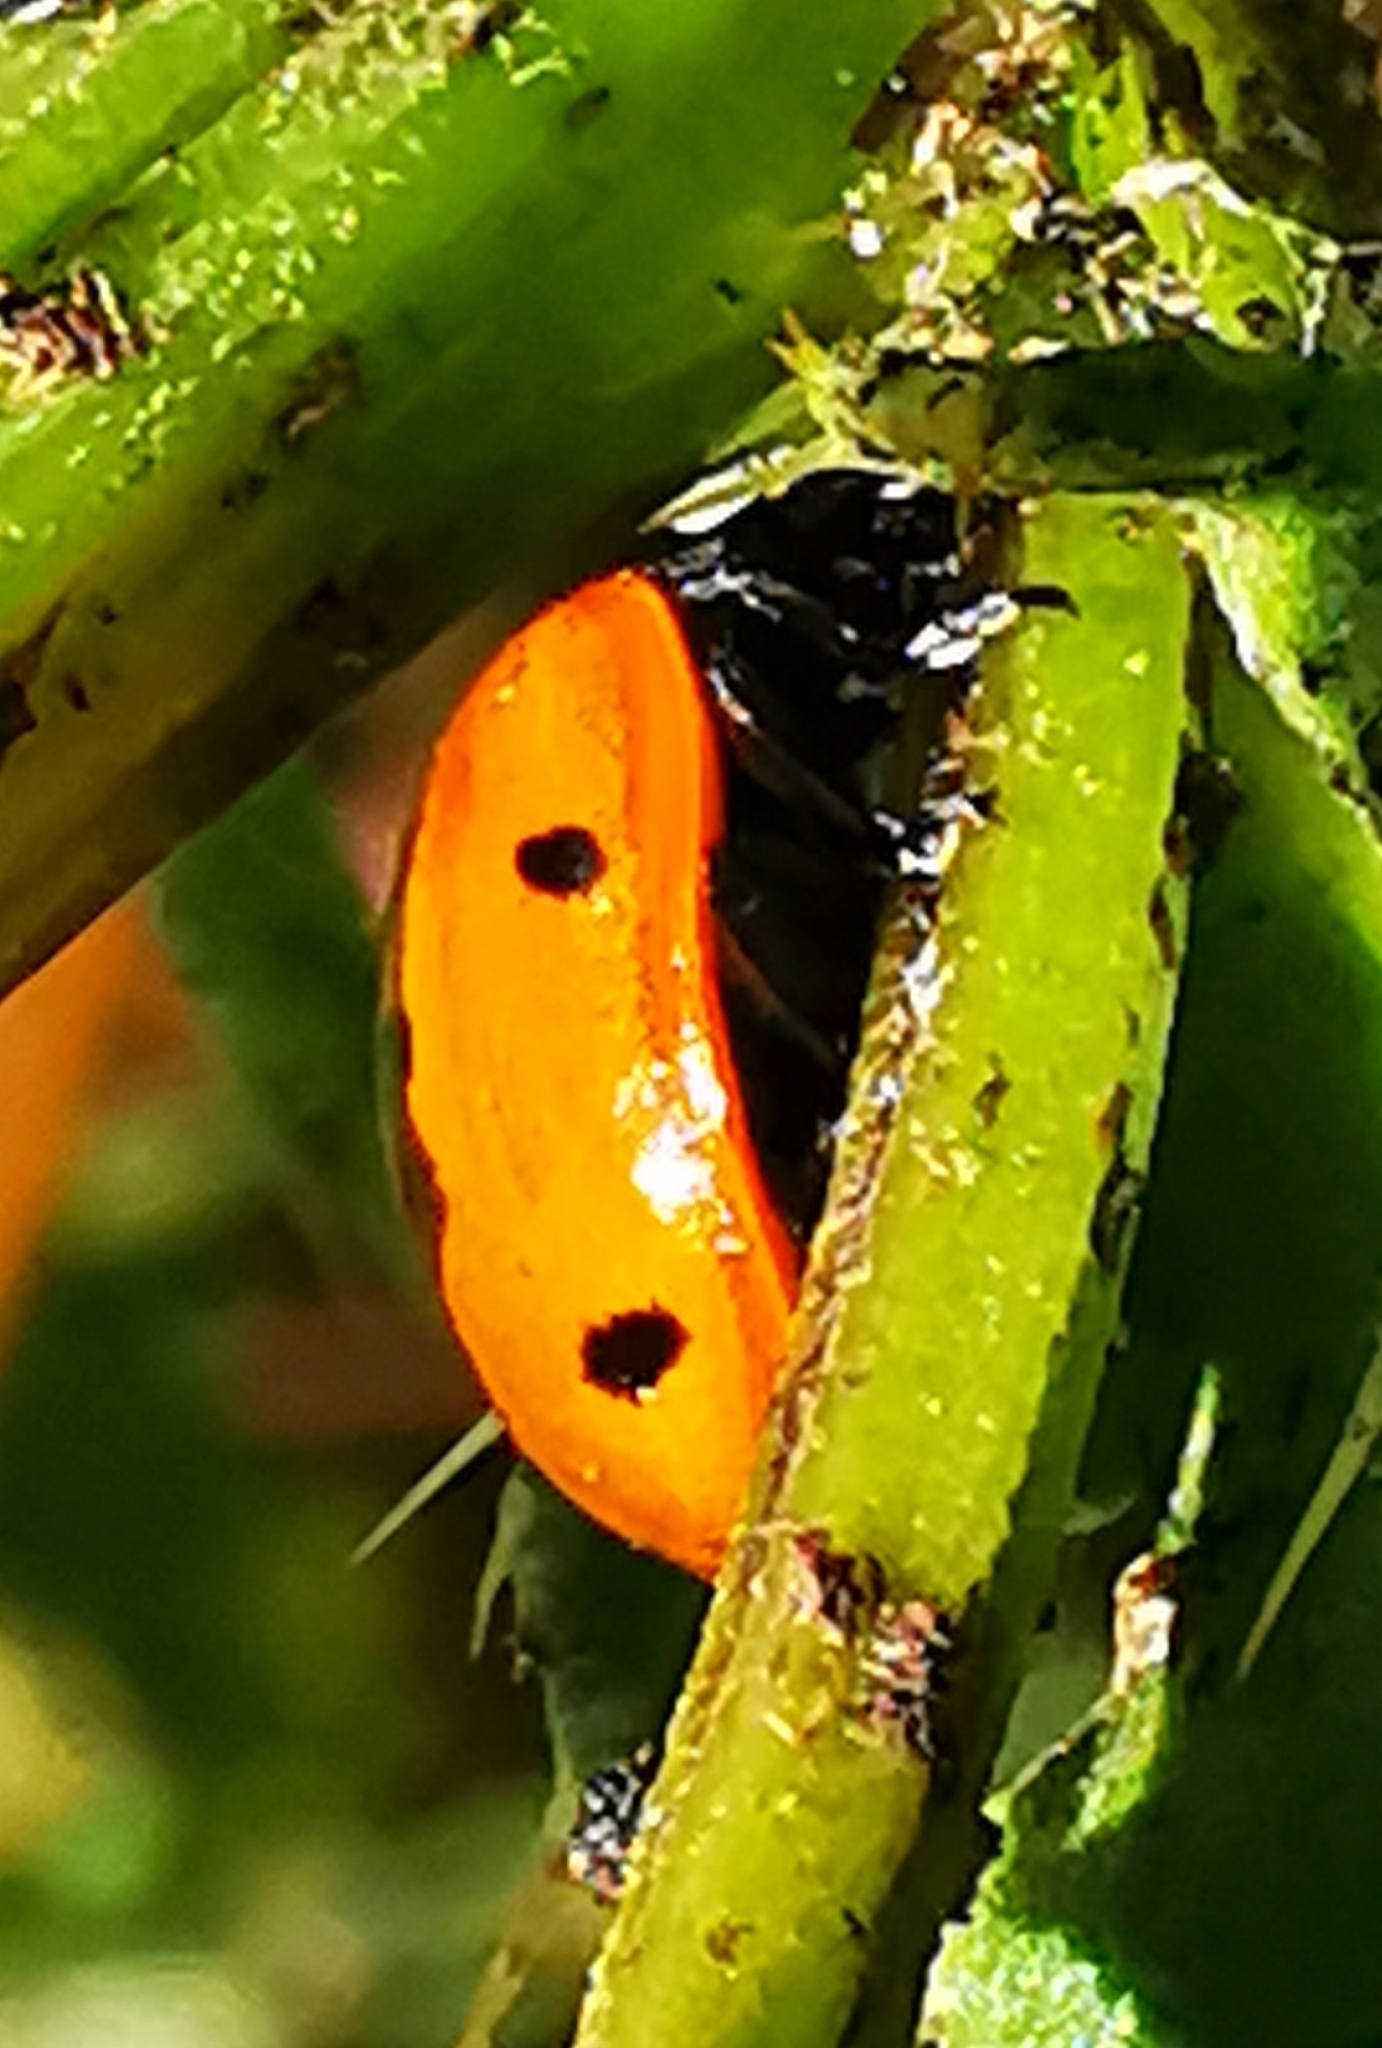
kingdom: Animalia
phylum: Arthropoda
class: Insecta
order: Coleoptera
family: Coccinellidae
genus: Coccinella
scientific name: Coccinella septempunctata
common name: Sevenspotted lady beetle
